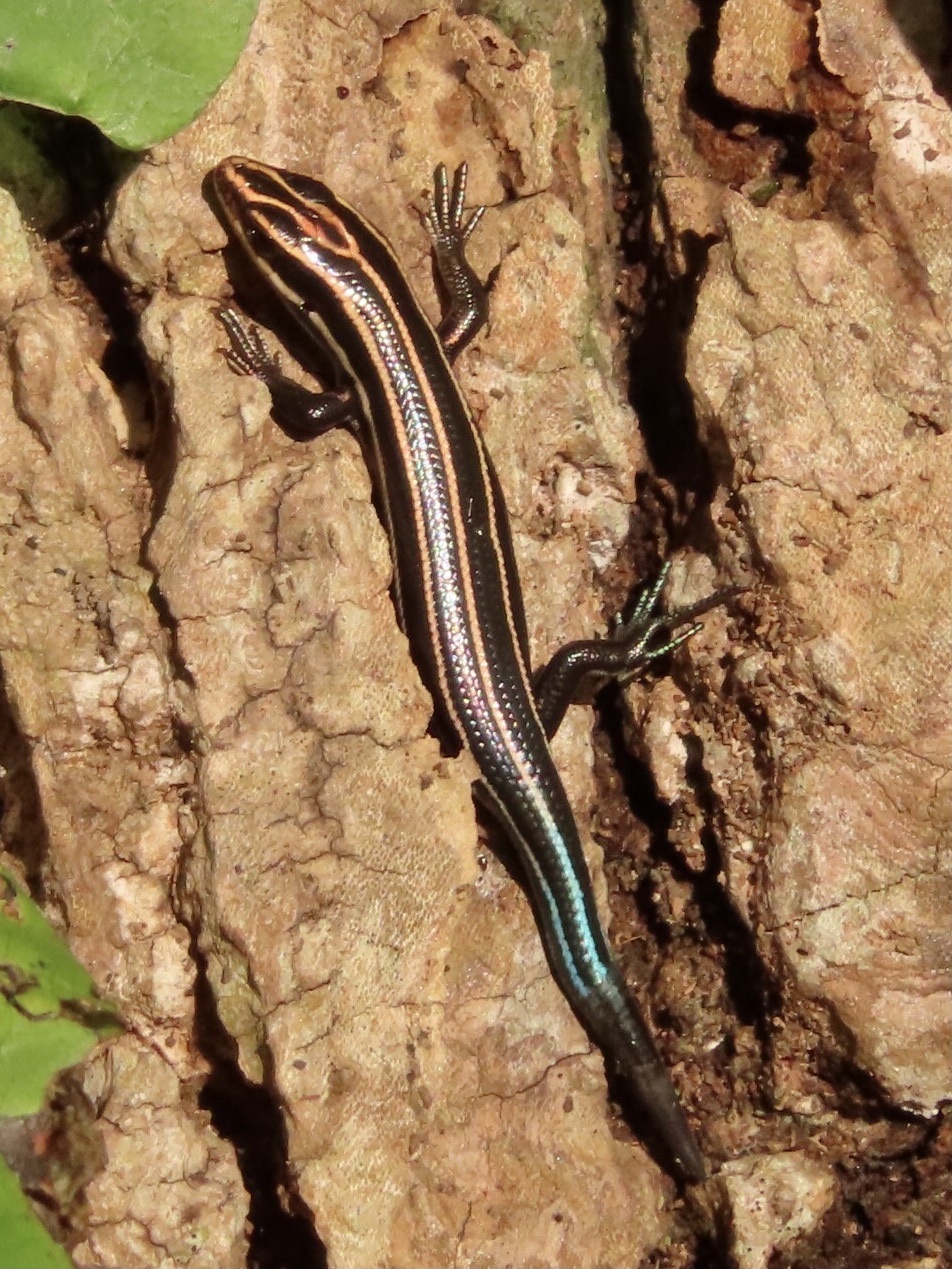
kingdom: Animalia
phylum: Chordata
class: Squamata
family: Scincidae
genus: Plestiodon
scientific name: Plestiodon fasciatus
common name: Five-lined skink
